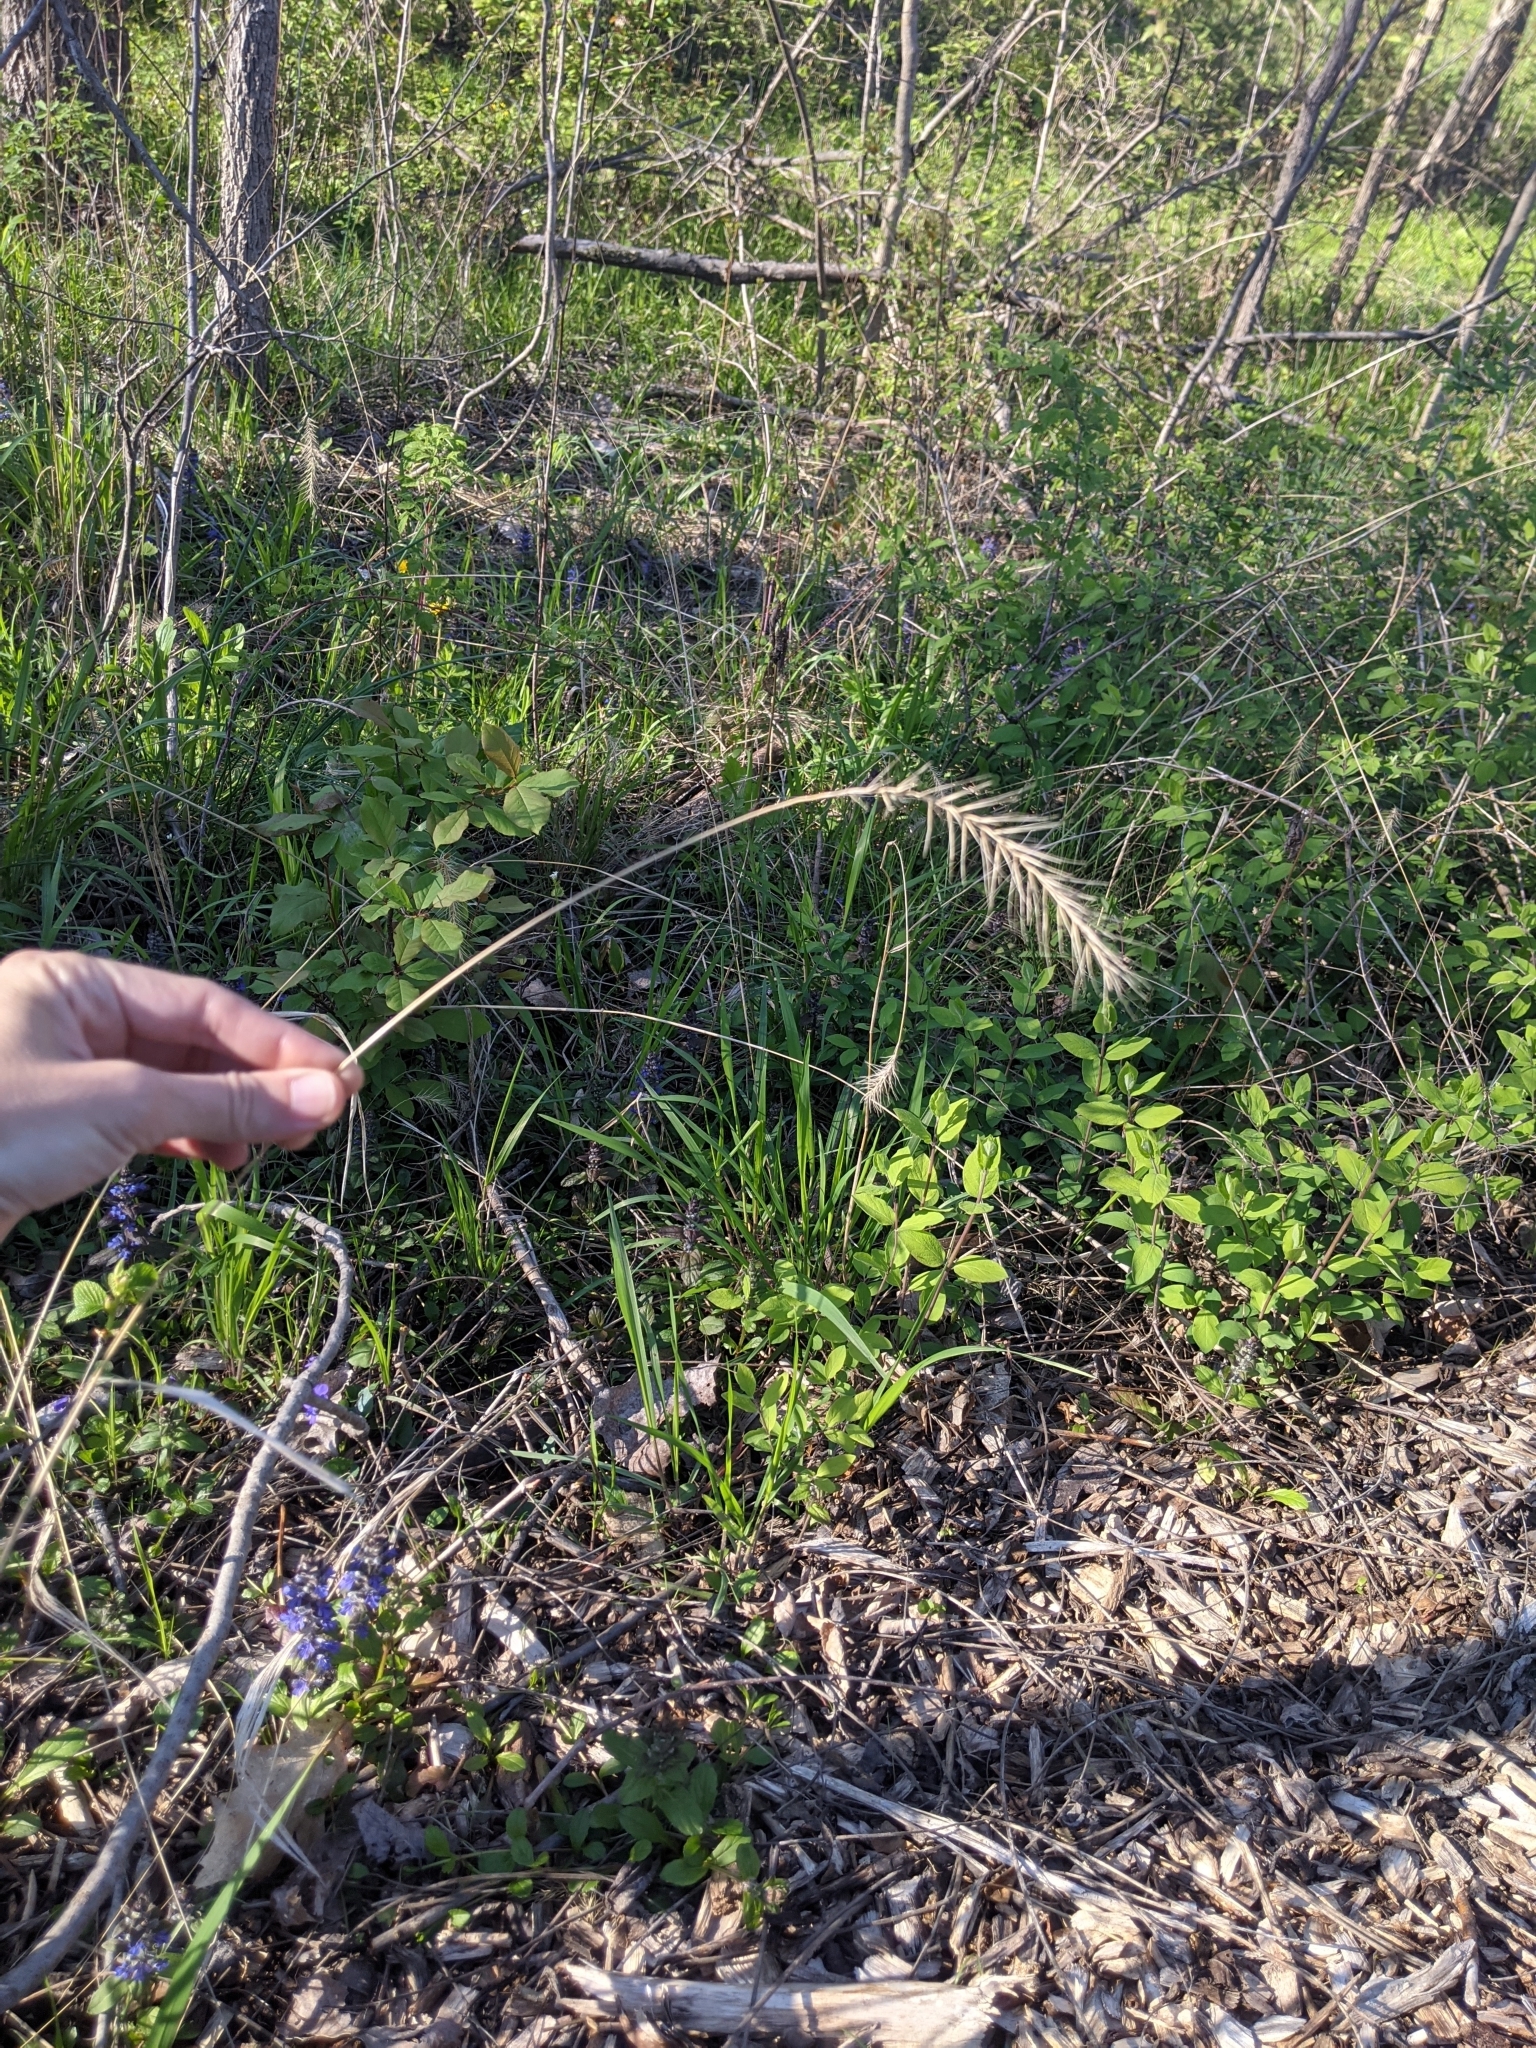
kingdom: Plantae
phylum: Tracheophyta
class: Liliopsida
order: Poales
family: Poaceae
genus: Elymus
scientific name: Elymus villosus
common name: Downy wild rye
